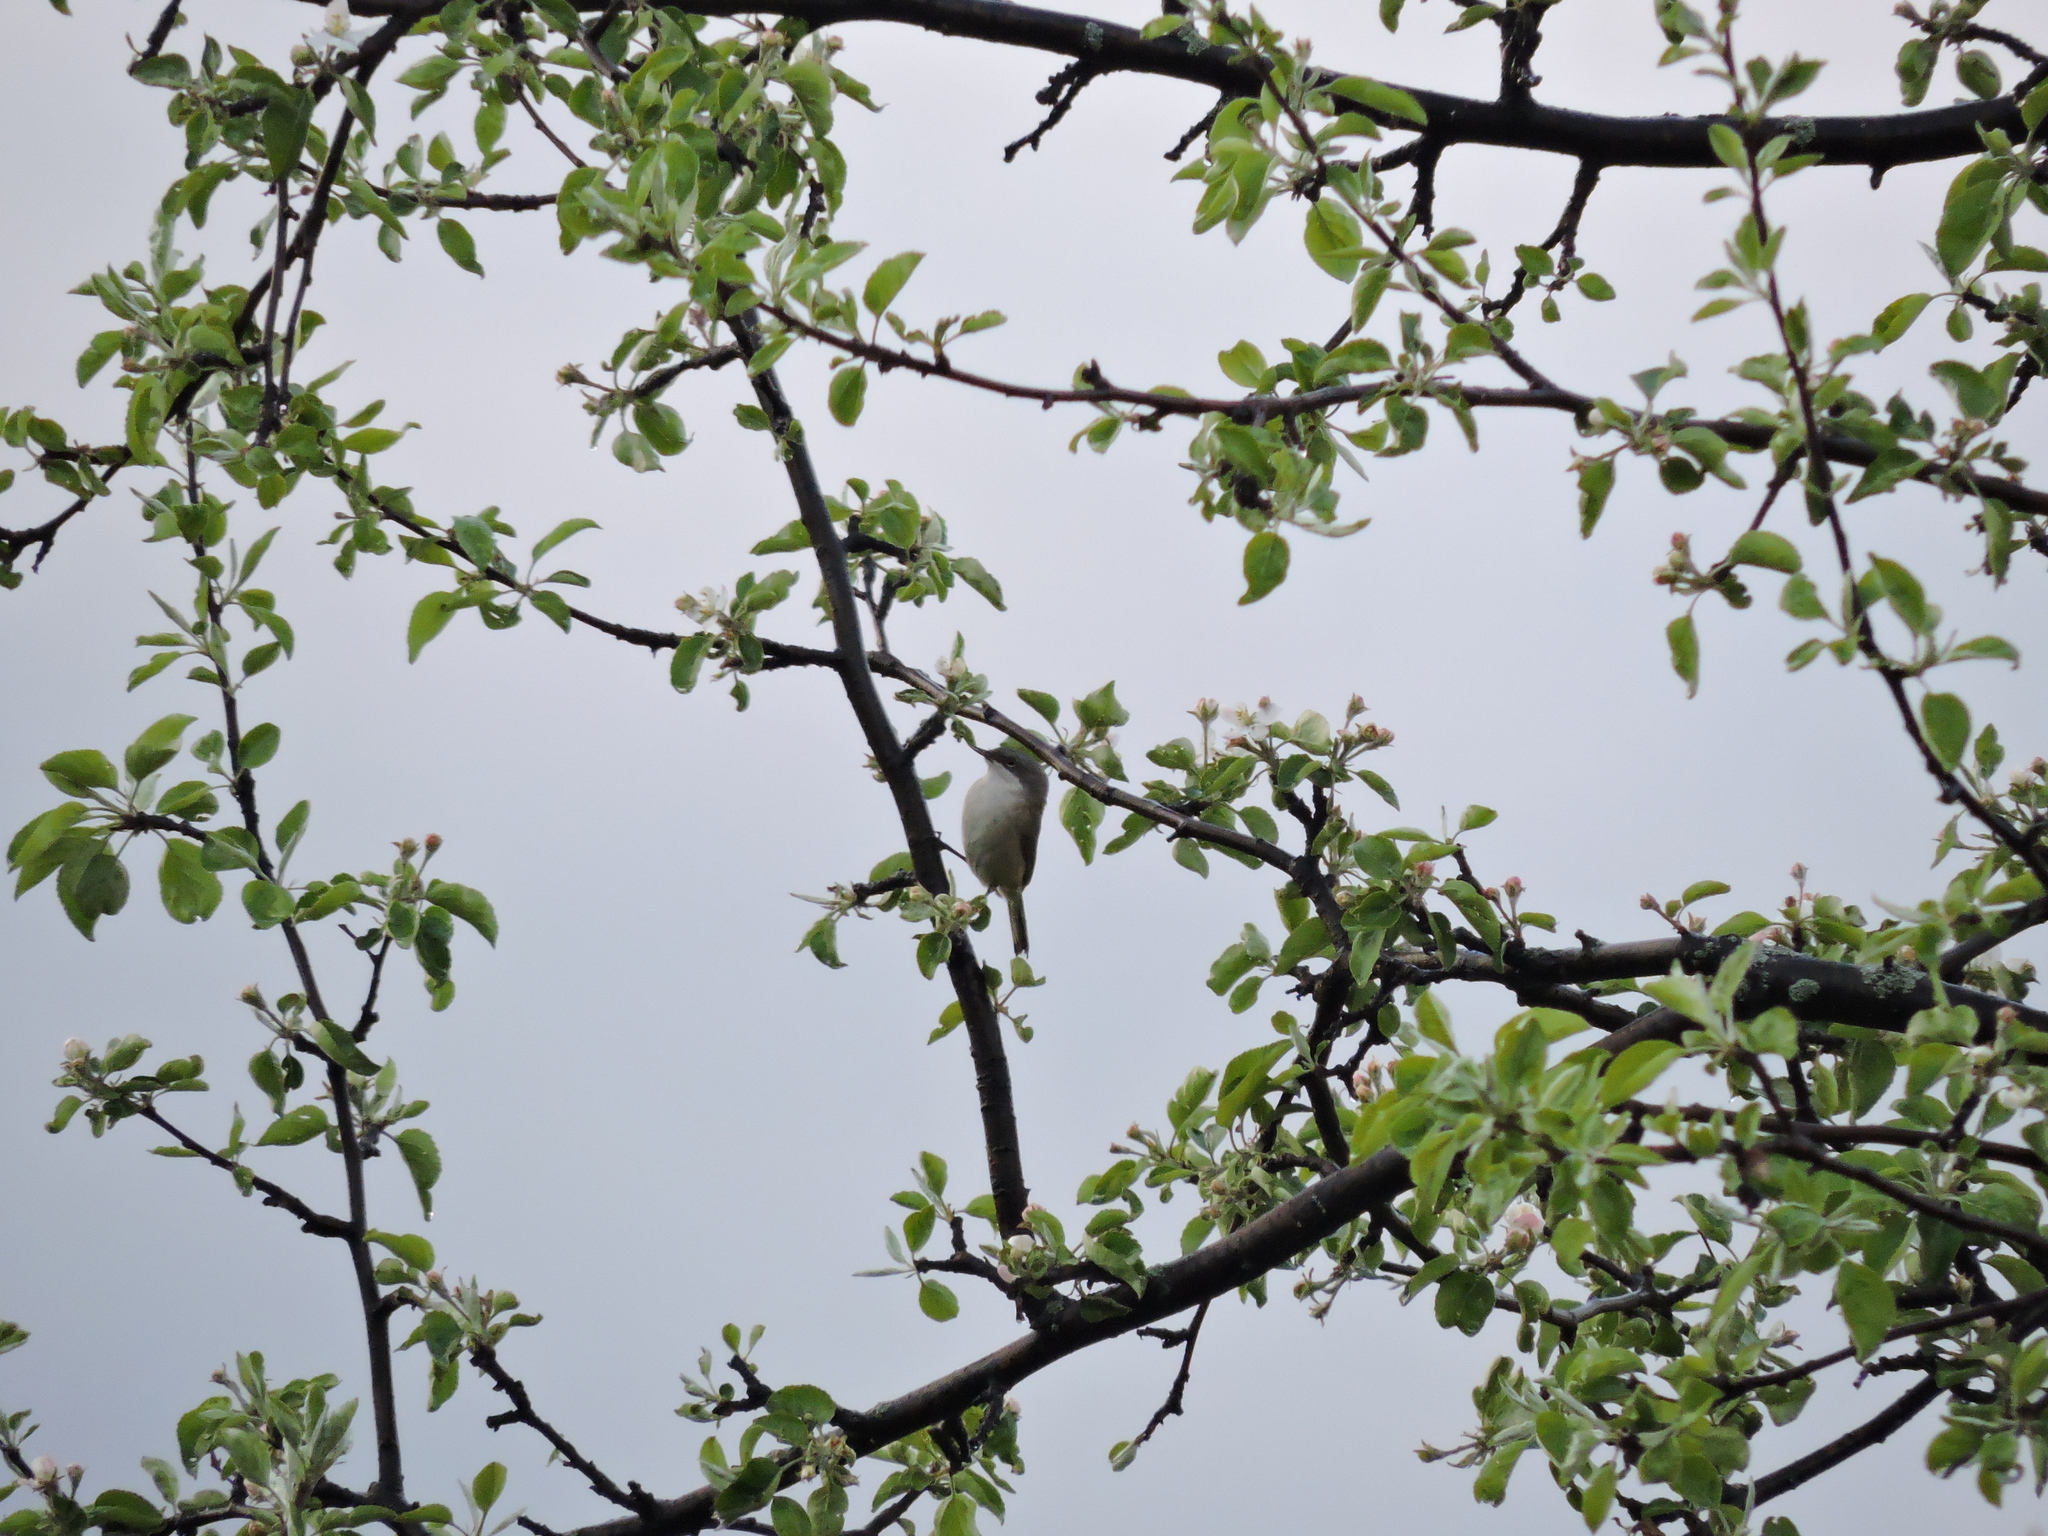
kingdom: Animalia
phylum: Chordata
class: Aves
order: Passeriformes
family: Sylviidae
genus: Sylvia
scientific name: Sylvia curruca
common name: Lesser whitethroat
